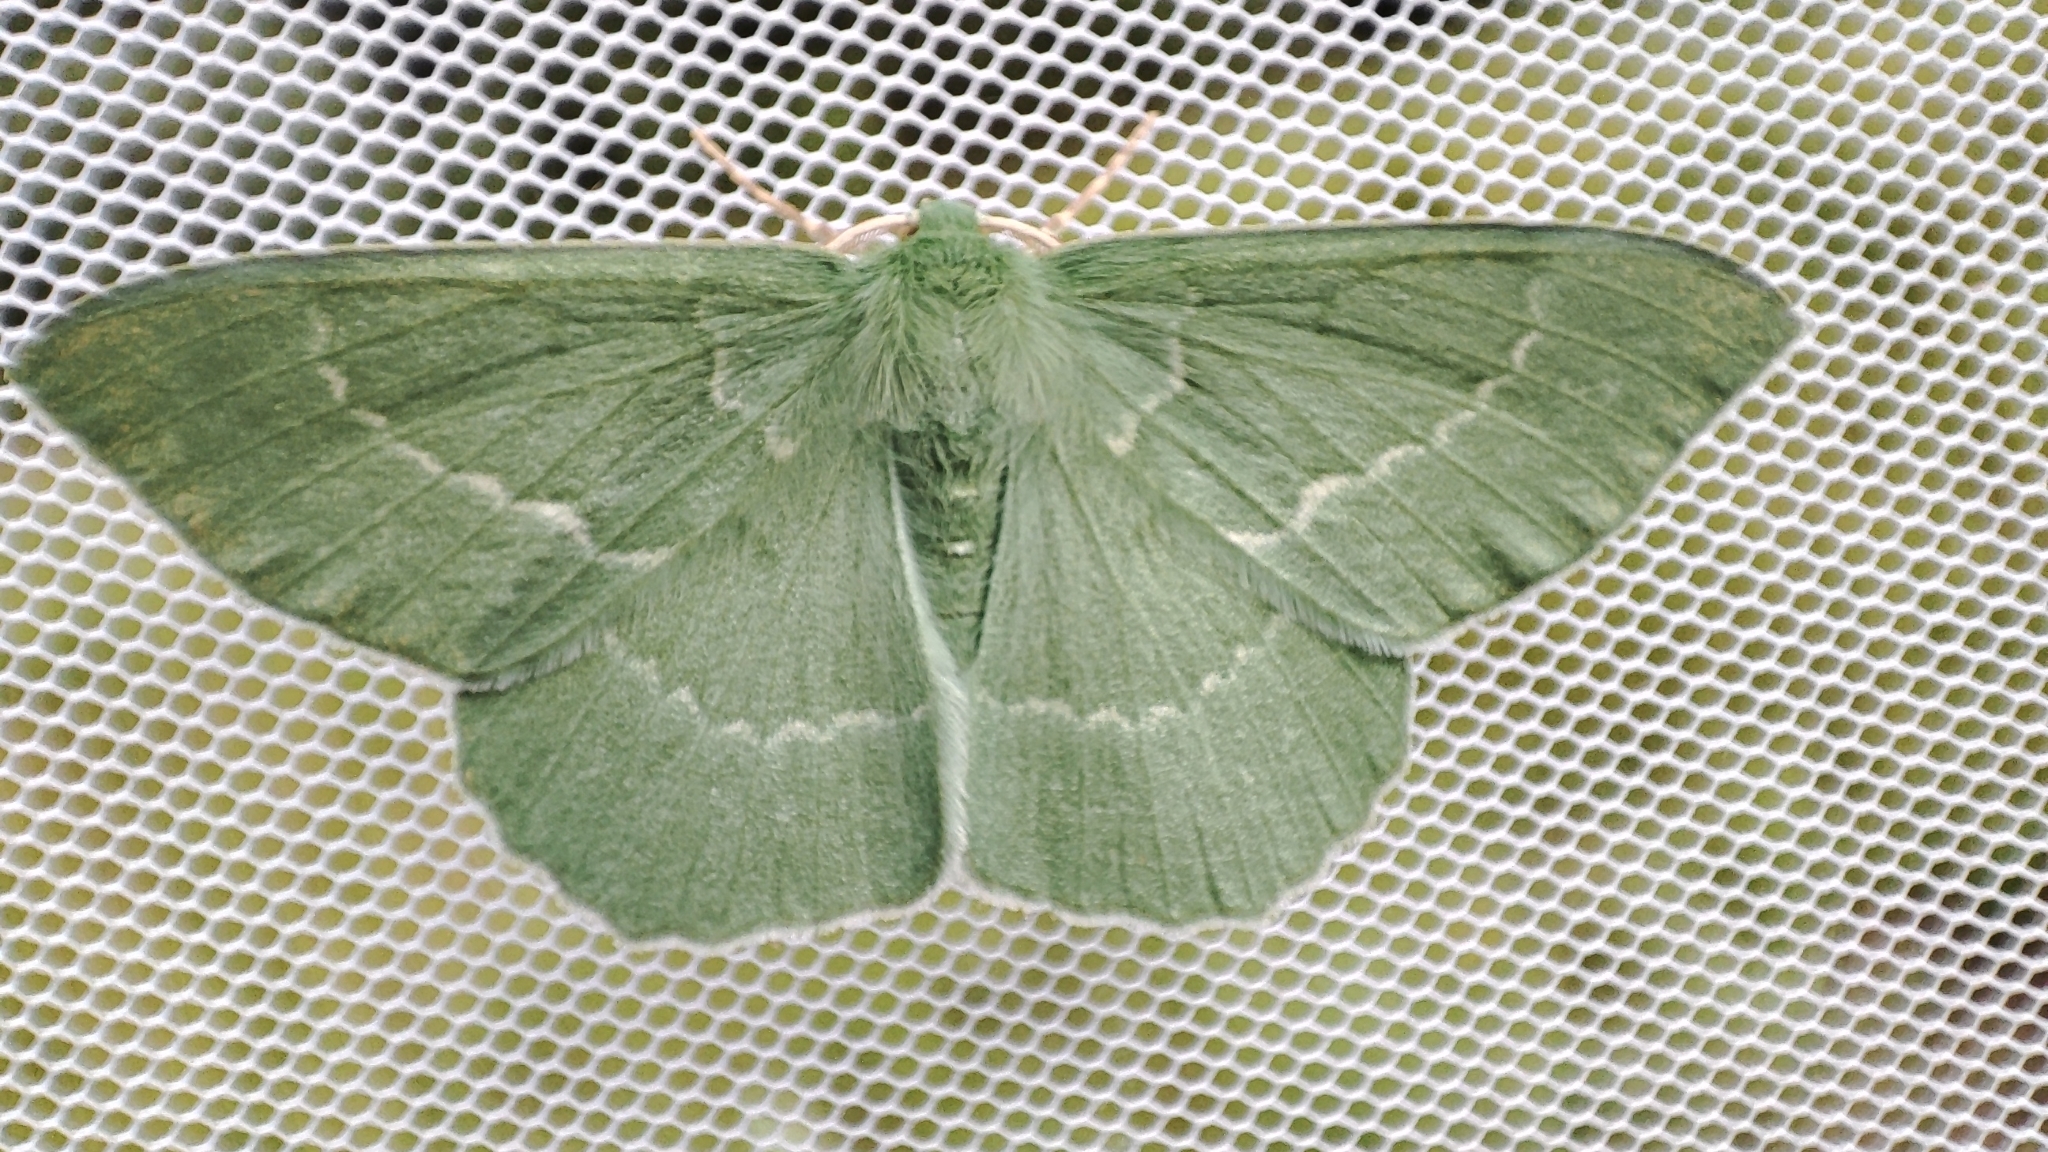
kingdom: Animalia
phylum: Arthropoda
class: Insecta
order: Lepidoptera
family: Geometridae
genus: Geometra
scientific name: Geometra papilionaria
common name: Large emerald
